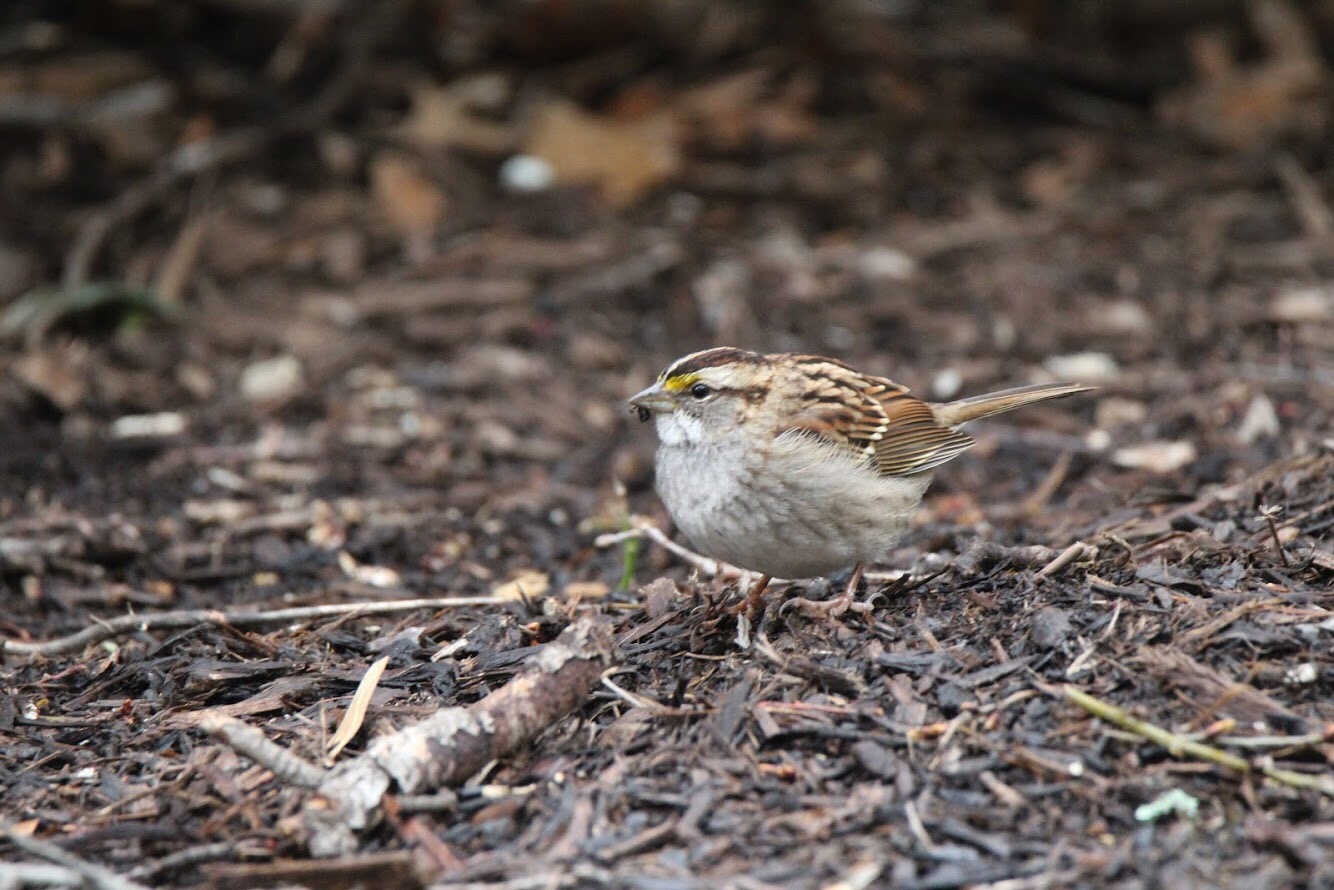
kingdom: Animalia
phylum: Chordata
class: Aves
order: Passeriformes
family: Passerellidae
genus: Zonotrichia
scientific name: Zonotrichia albicollis
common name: White-throated sparrow
